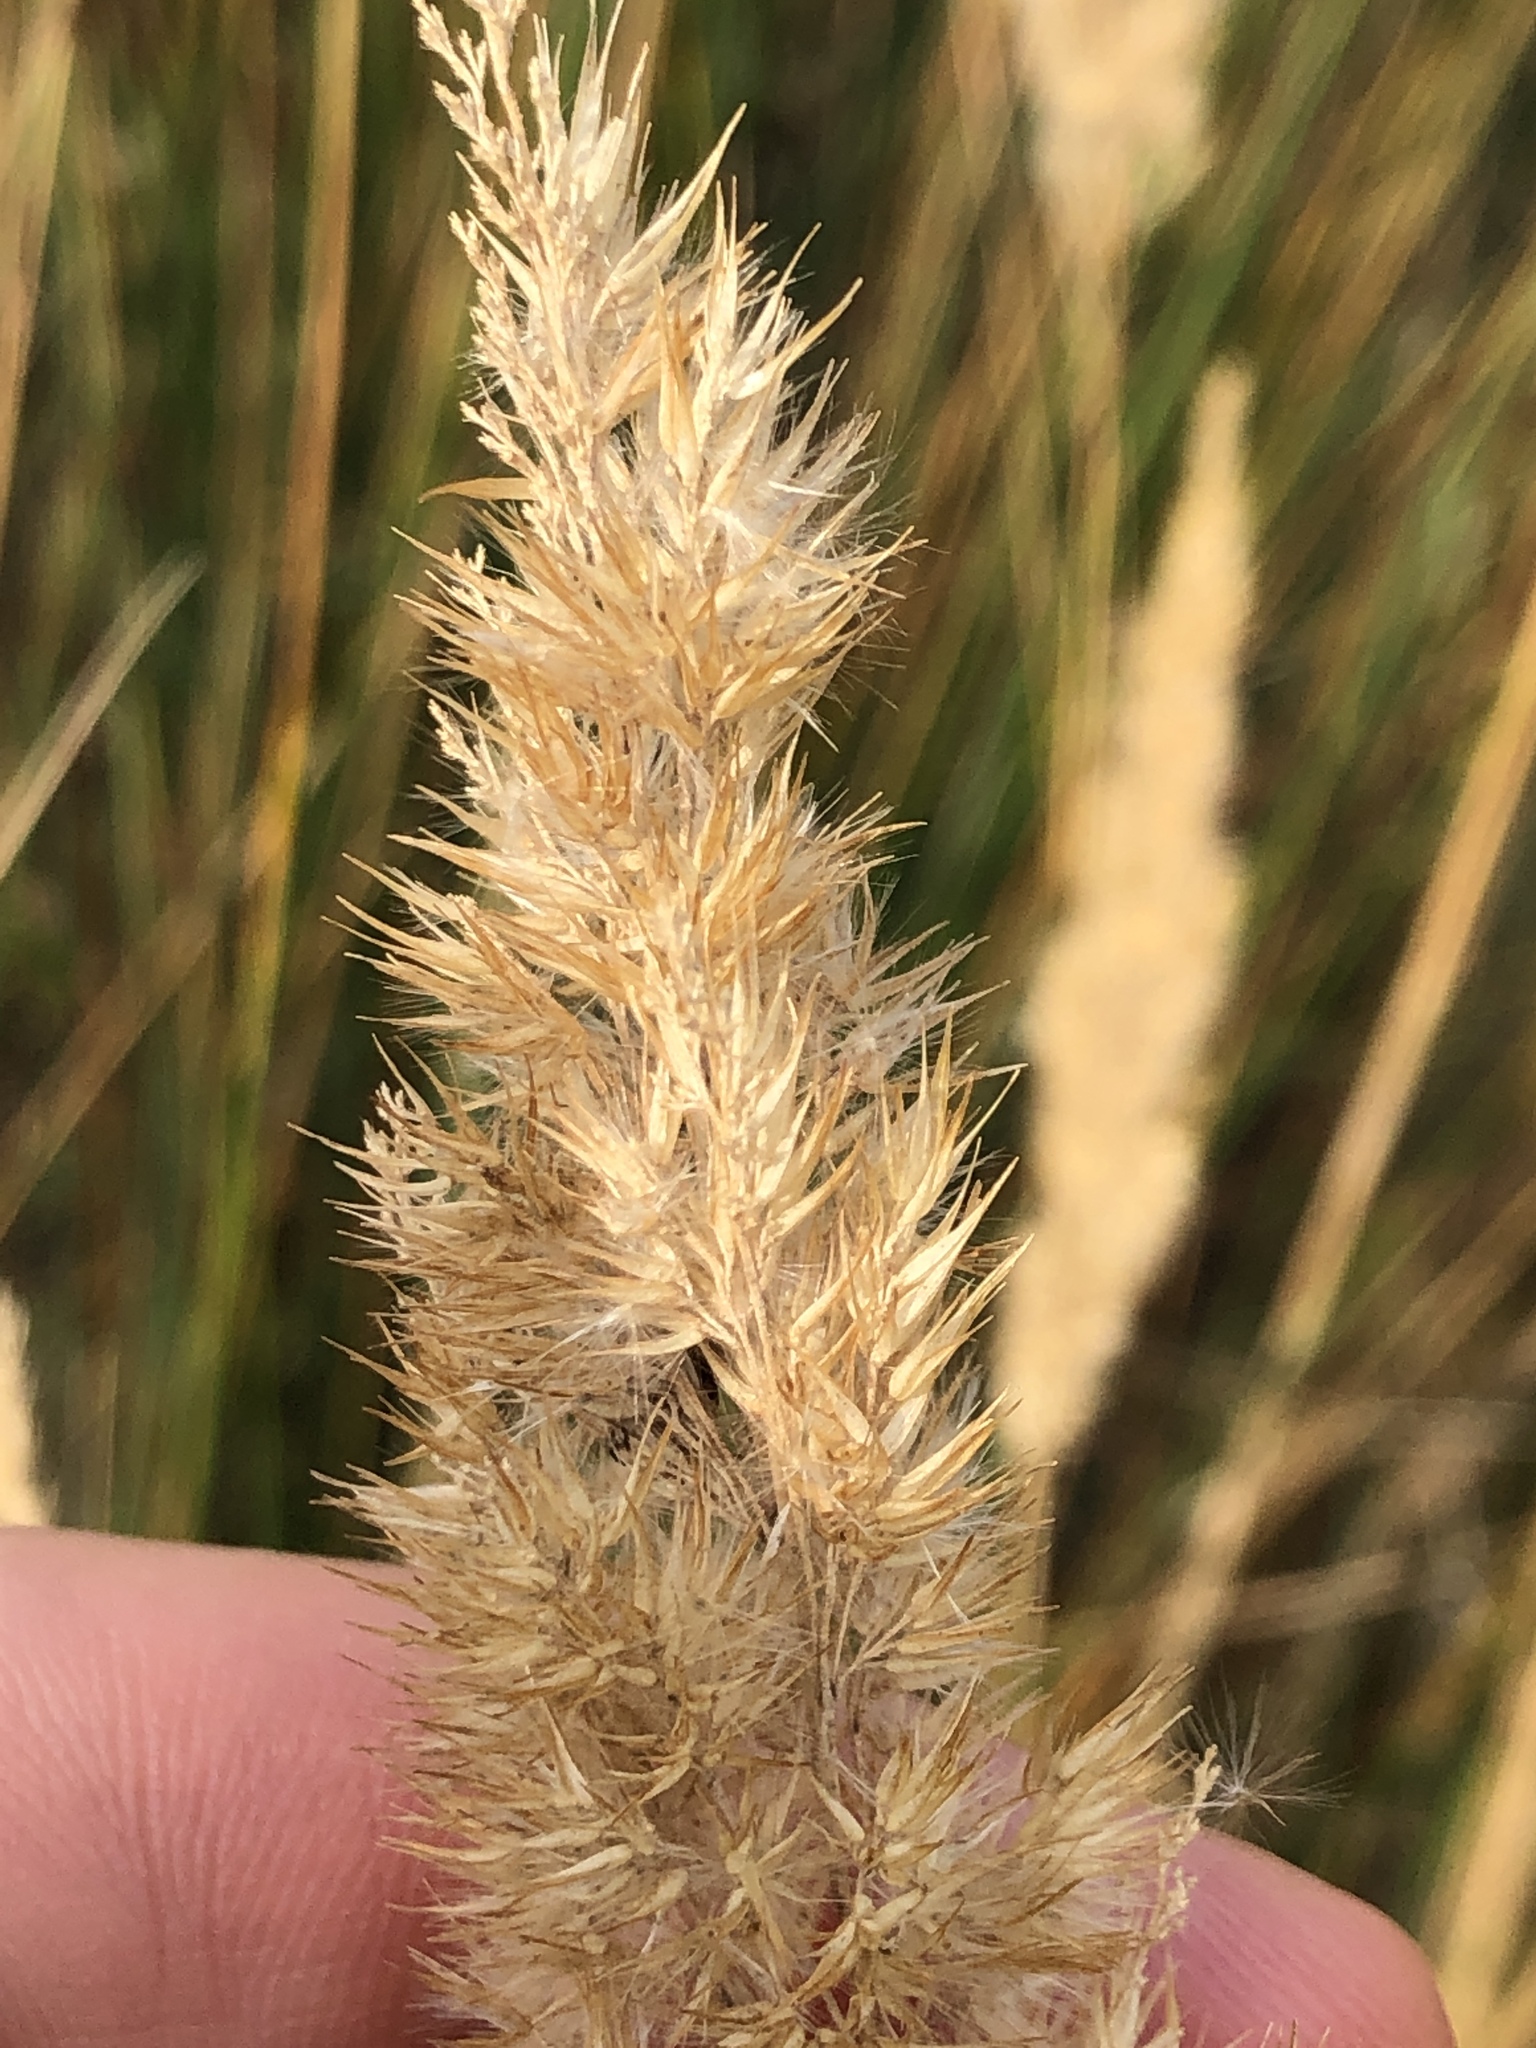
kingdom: Plantae
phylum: Tracheophyta
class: Liliopsida
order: Poales
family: Poaceae
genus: Calamagrostis
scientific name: Calamagrostis epigejos
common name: Wood small-reed
